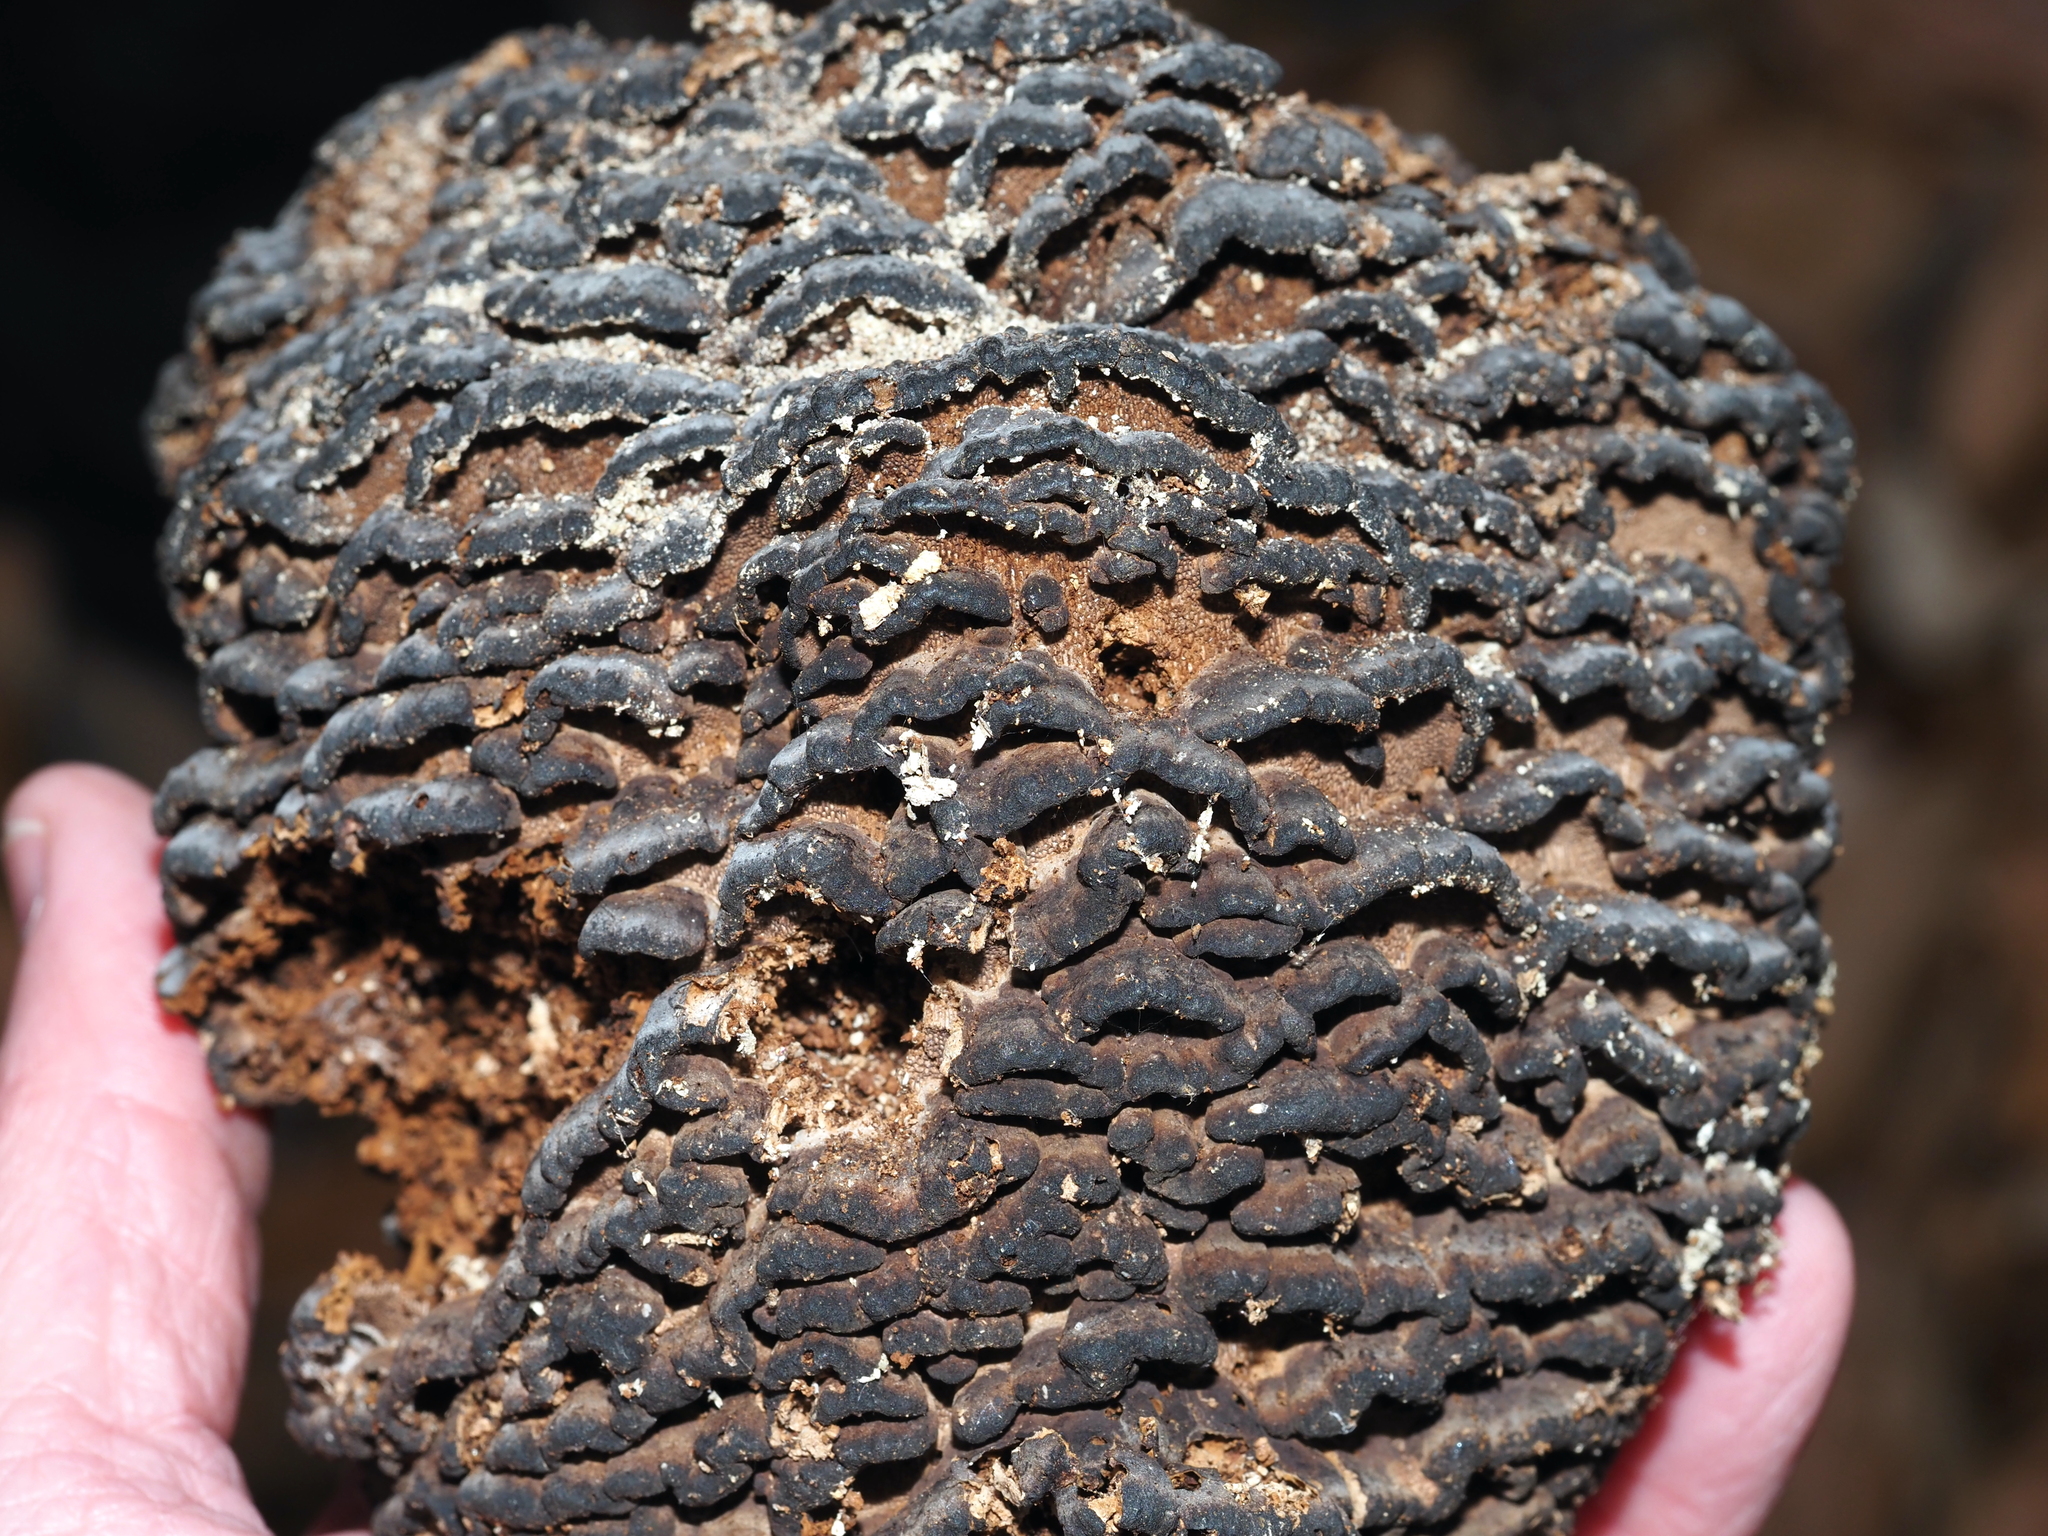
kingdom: Fungi
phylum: Basidiomycota
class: Agaricomycetes
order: Polyporales
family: Polyporaceae
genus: Globifomes
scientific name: Globifomes graveolens
